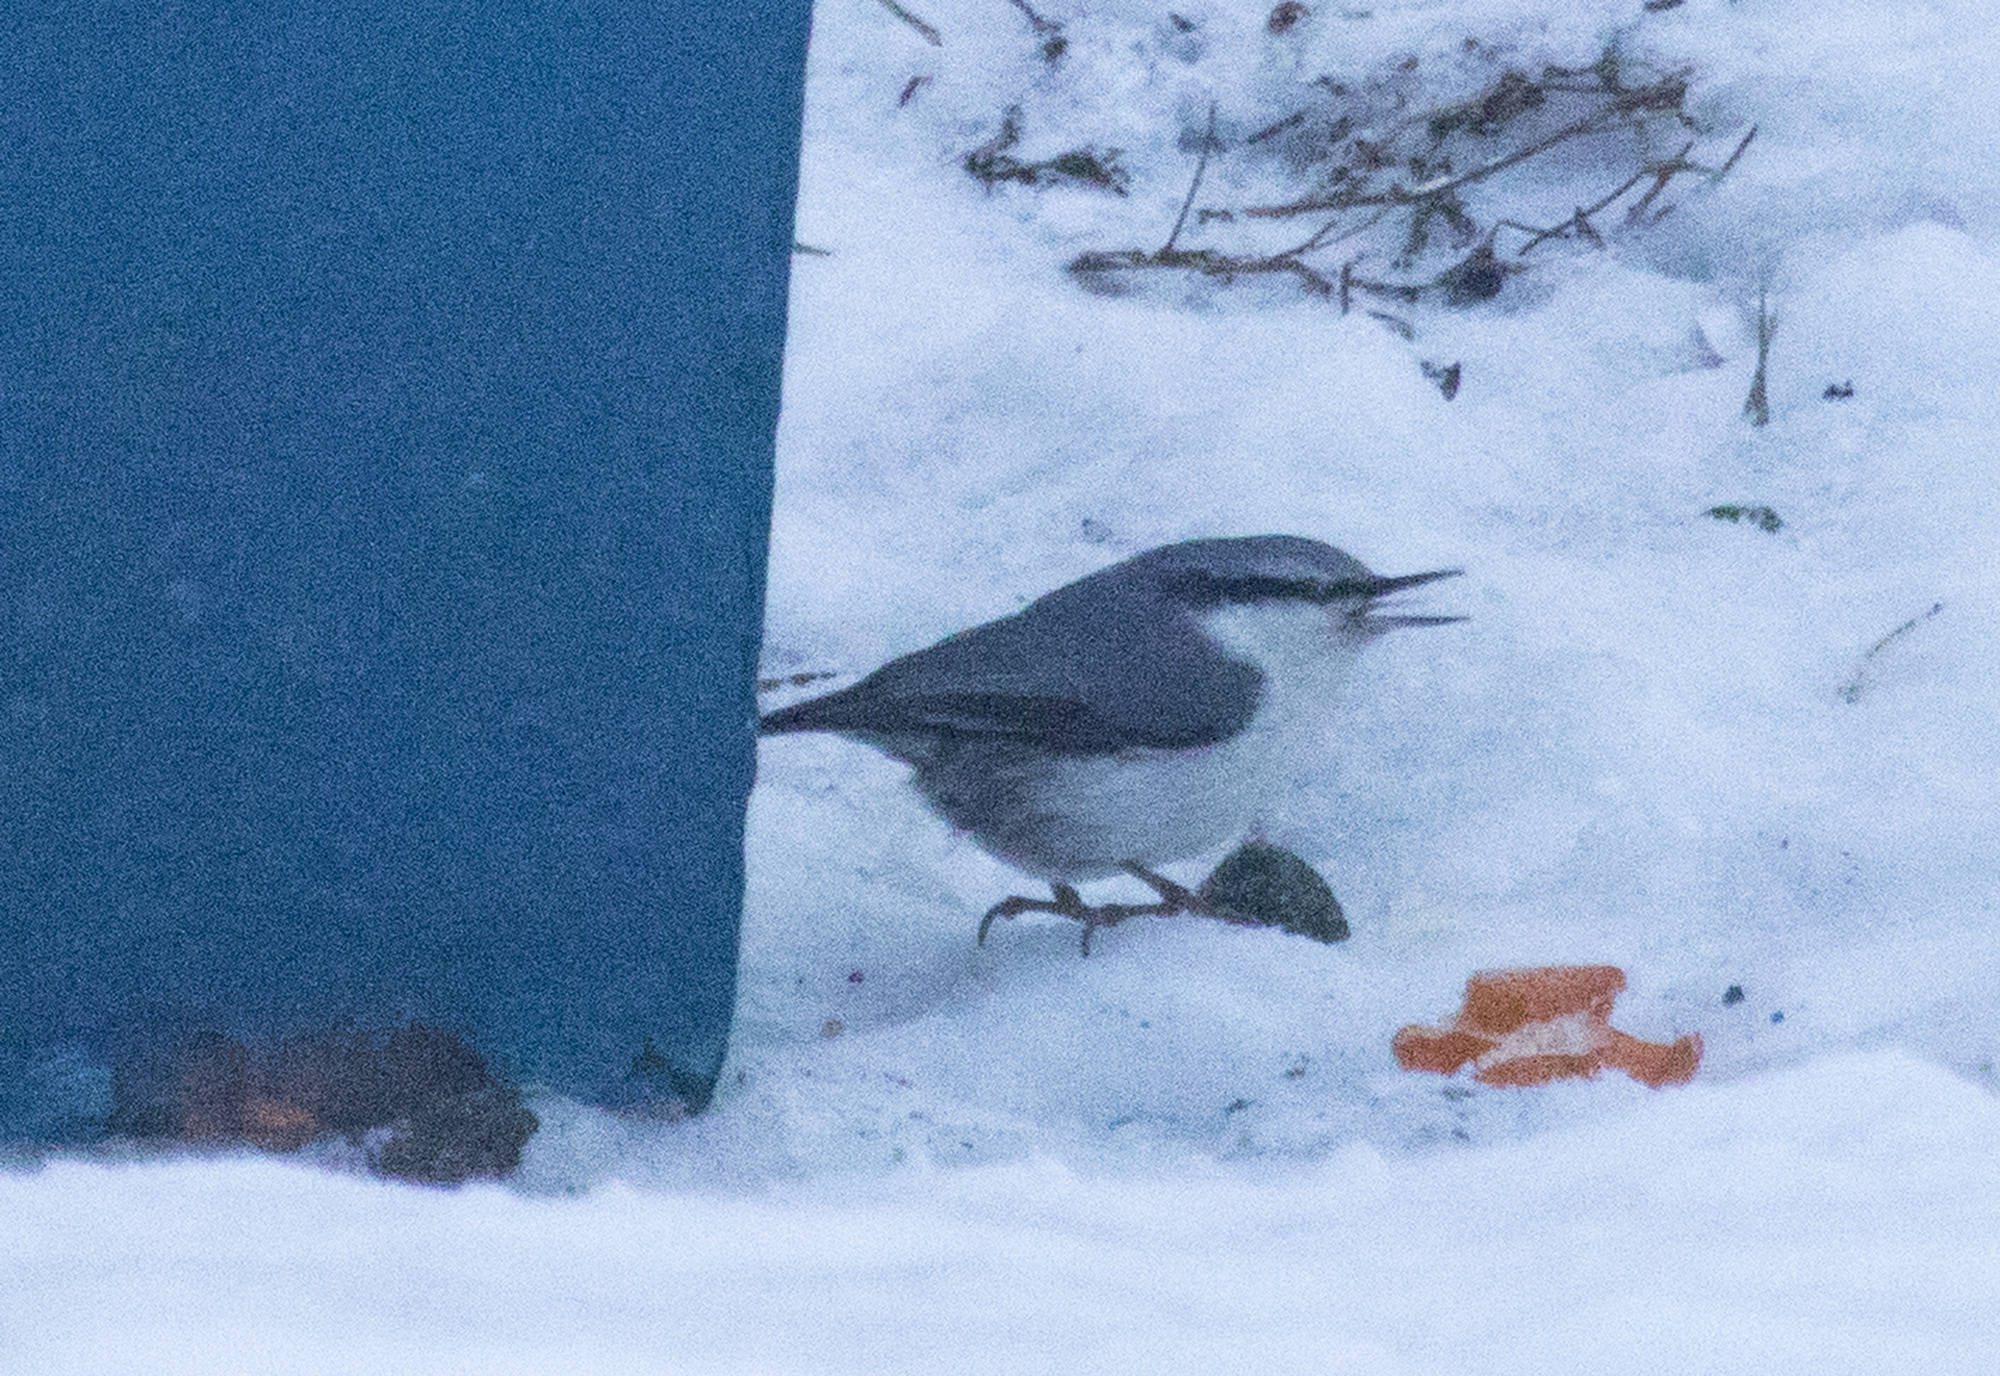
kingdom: Animalia
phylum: Chordata
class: Aves
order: Passeriformes
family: Sittidae
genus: Sitta
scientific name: Sitta europaea
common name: Eurasian nuthatch
